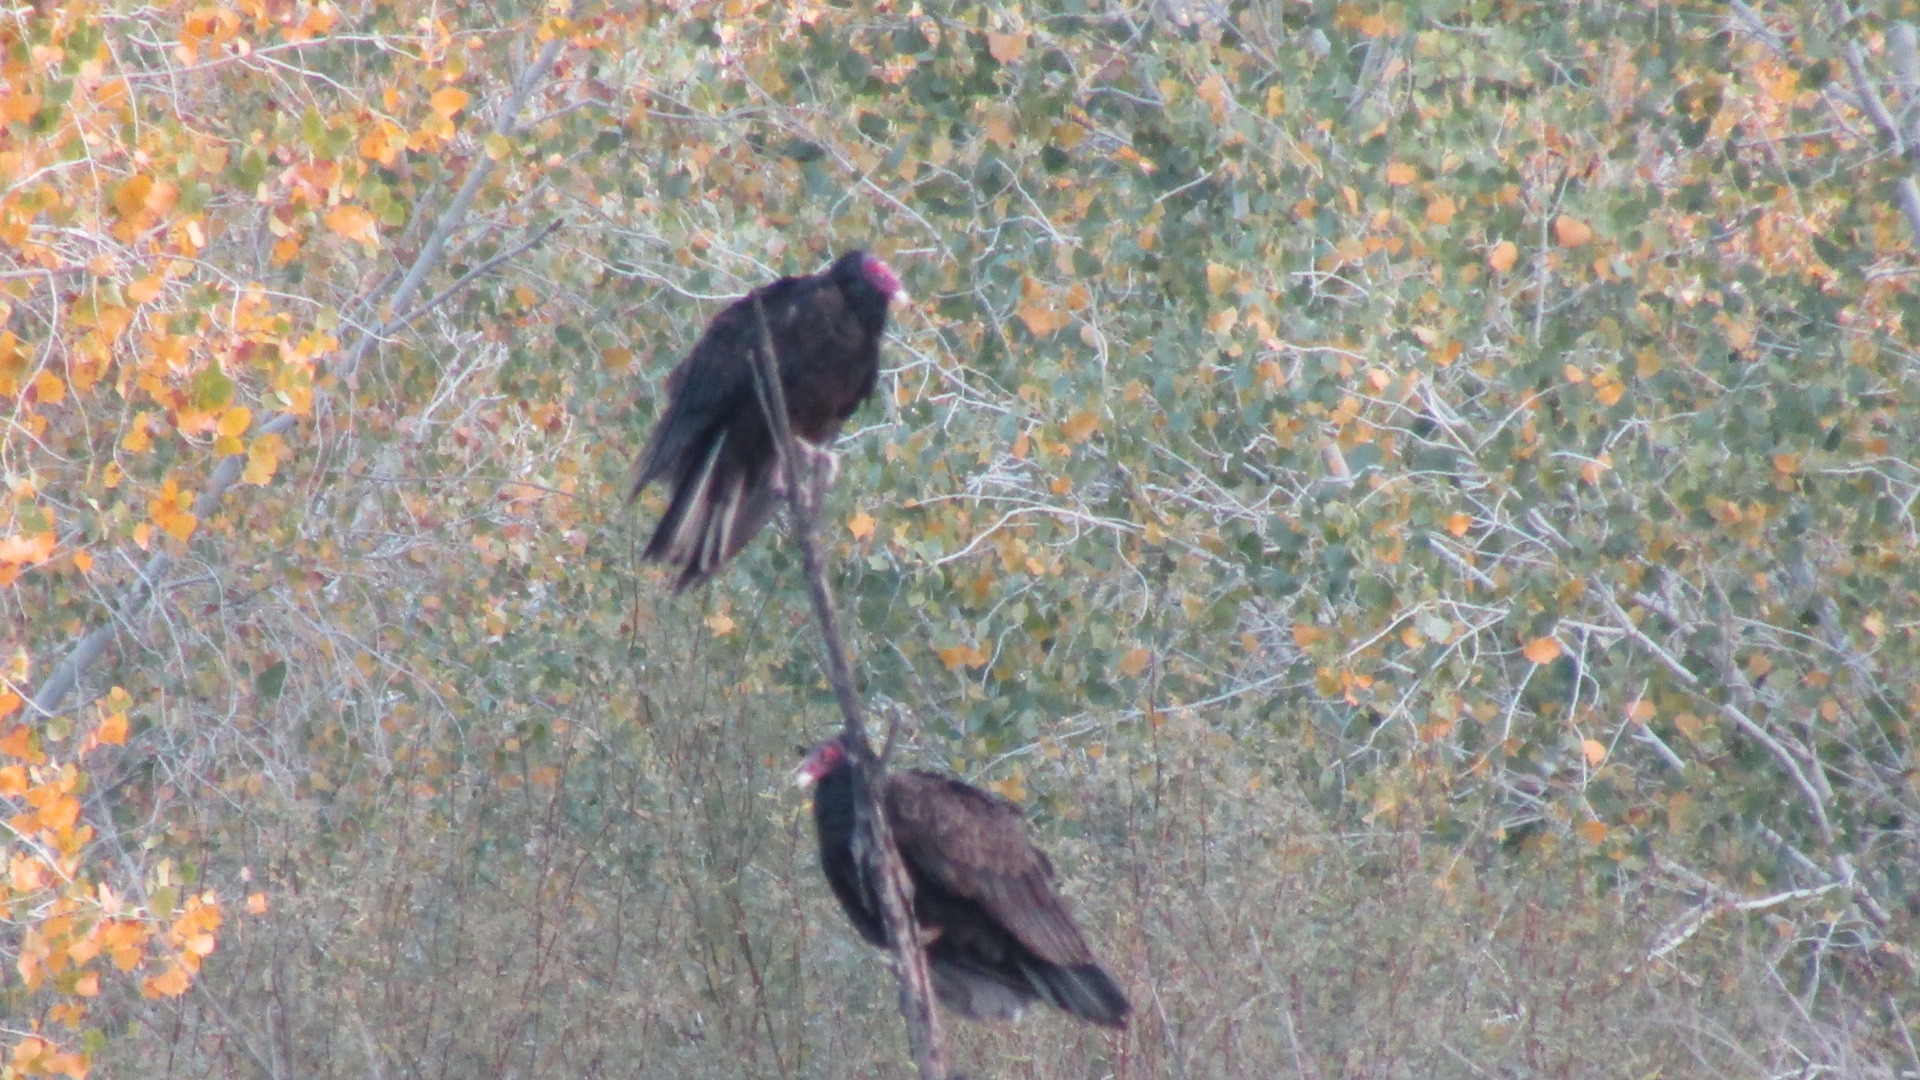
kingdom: Animalia
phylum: Chordata
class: Aves
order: Accipitriformes
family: Cathartidae
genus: Cathartes
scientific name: Cathartes aura
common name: Turkey vulture
